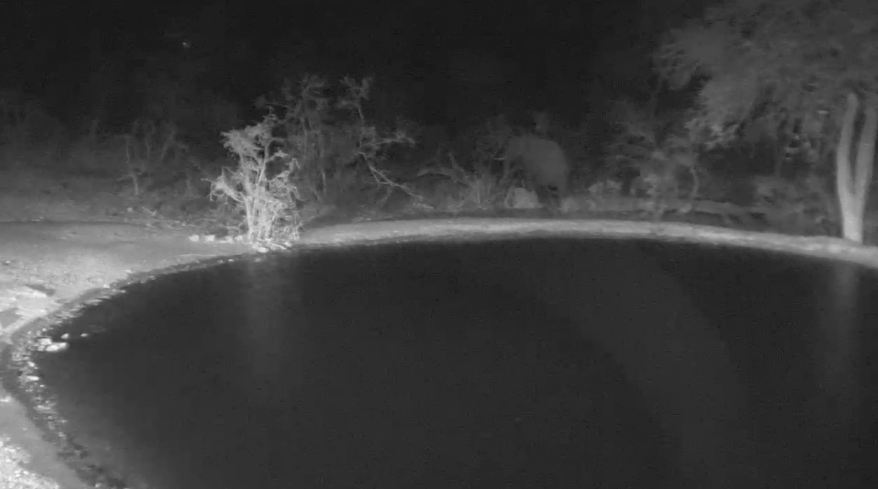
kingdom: Animalia
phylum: Chordata
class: Mammalia
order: Proboscidea
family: Elephantidae
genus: Loxodonta
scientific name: Loxodonta africana
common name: African elephant
